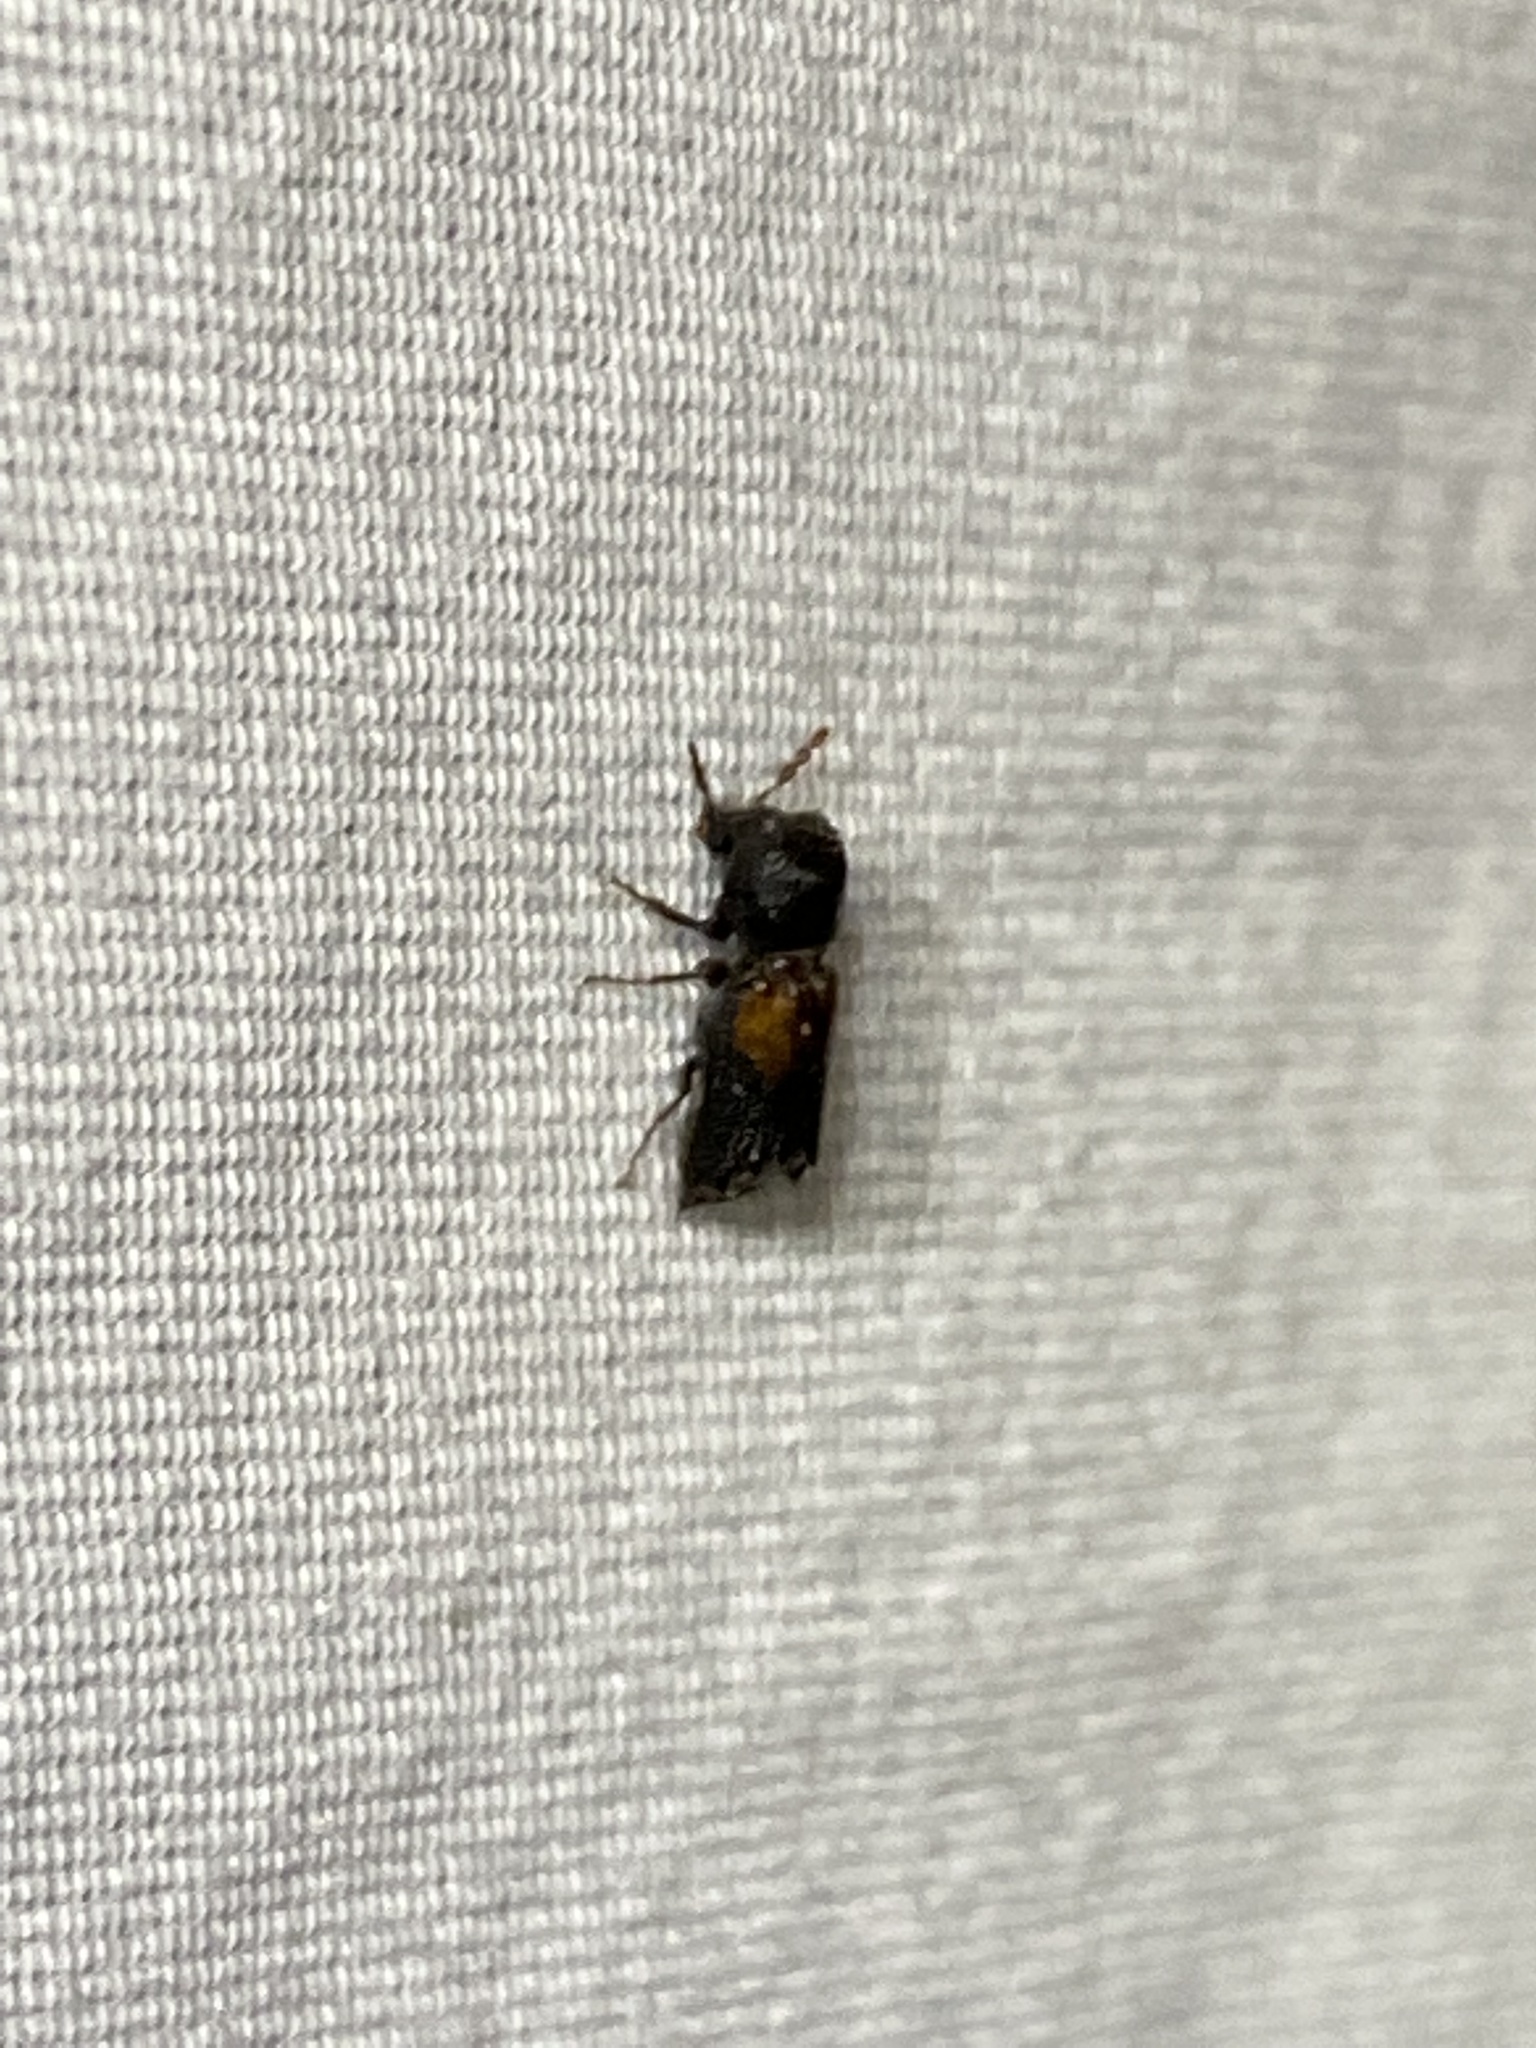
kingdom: Animalia
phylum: Arthropoda
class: Insecta
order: Coleoptera
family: Bostrichidae
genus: Xylobiops
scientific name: Xylobiops basilaris
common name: Red-shouldered bostrichid
